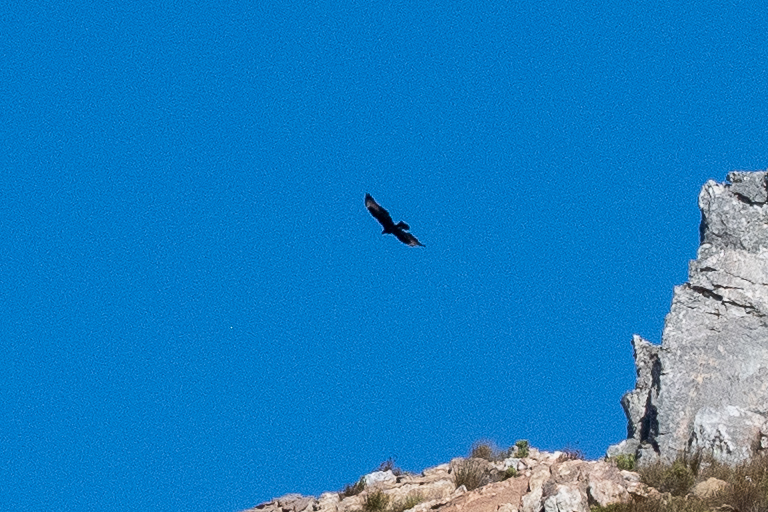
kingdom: Animalia
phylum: Chordata
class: Aves
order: Accipitriformes
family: Accipitridae
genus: Aquila
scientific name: Aquila verreauxii
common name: Verreaux's eagle
